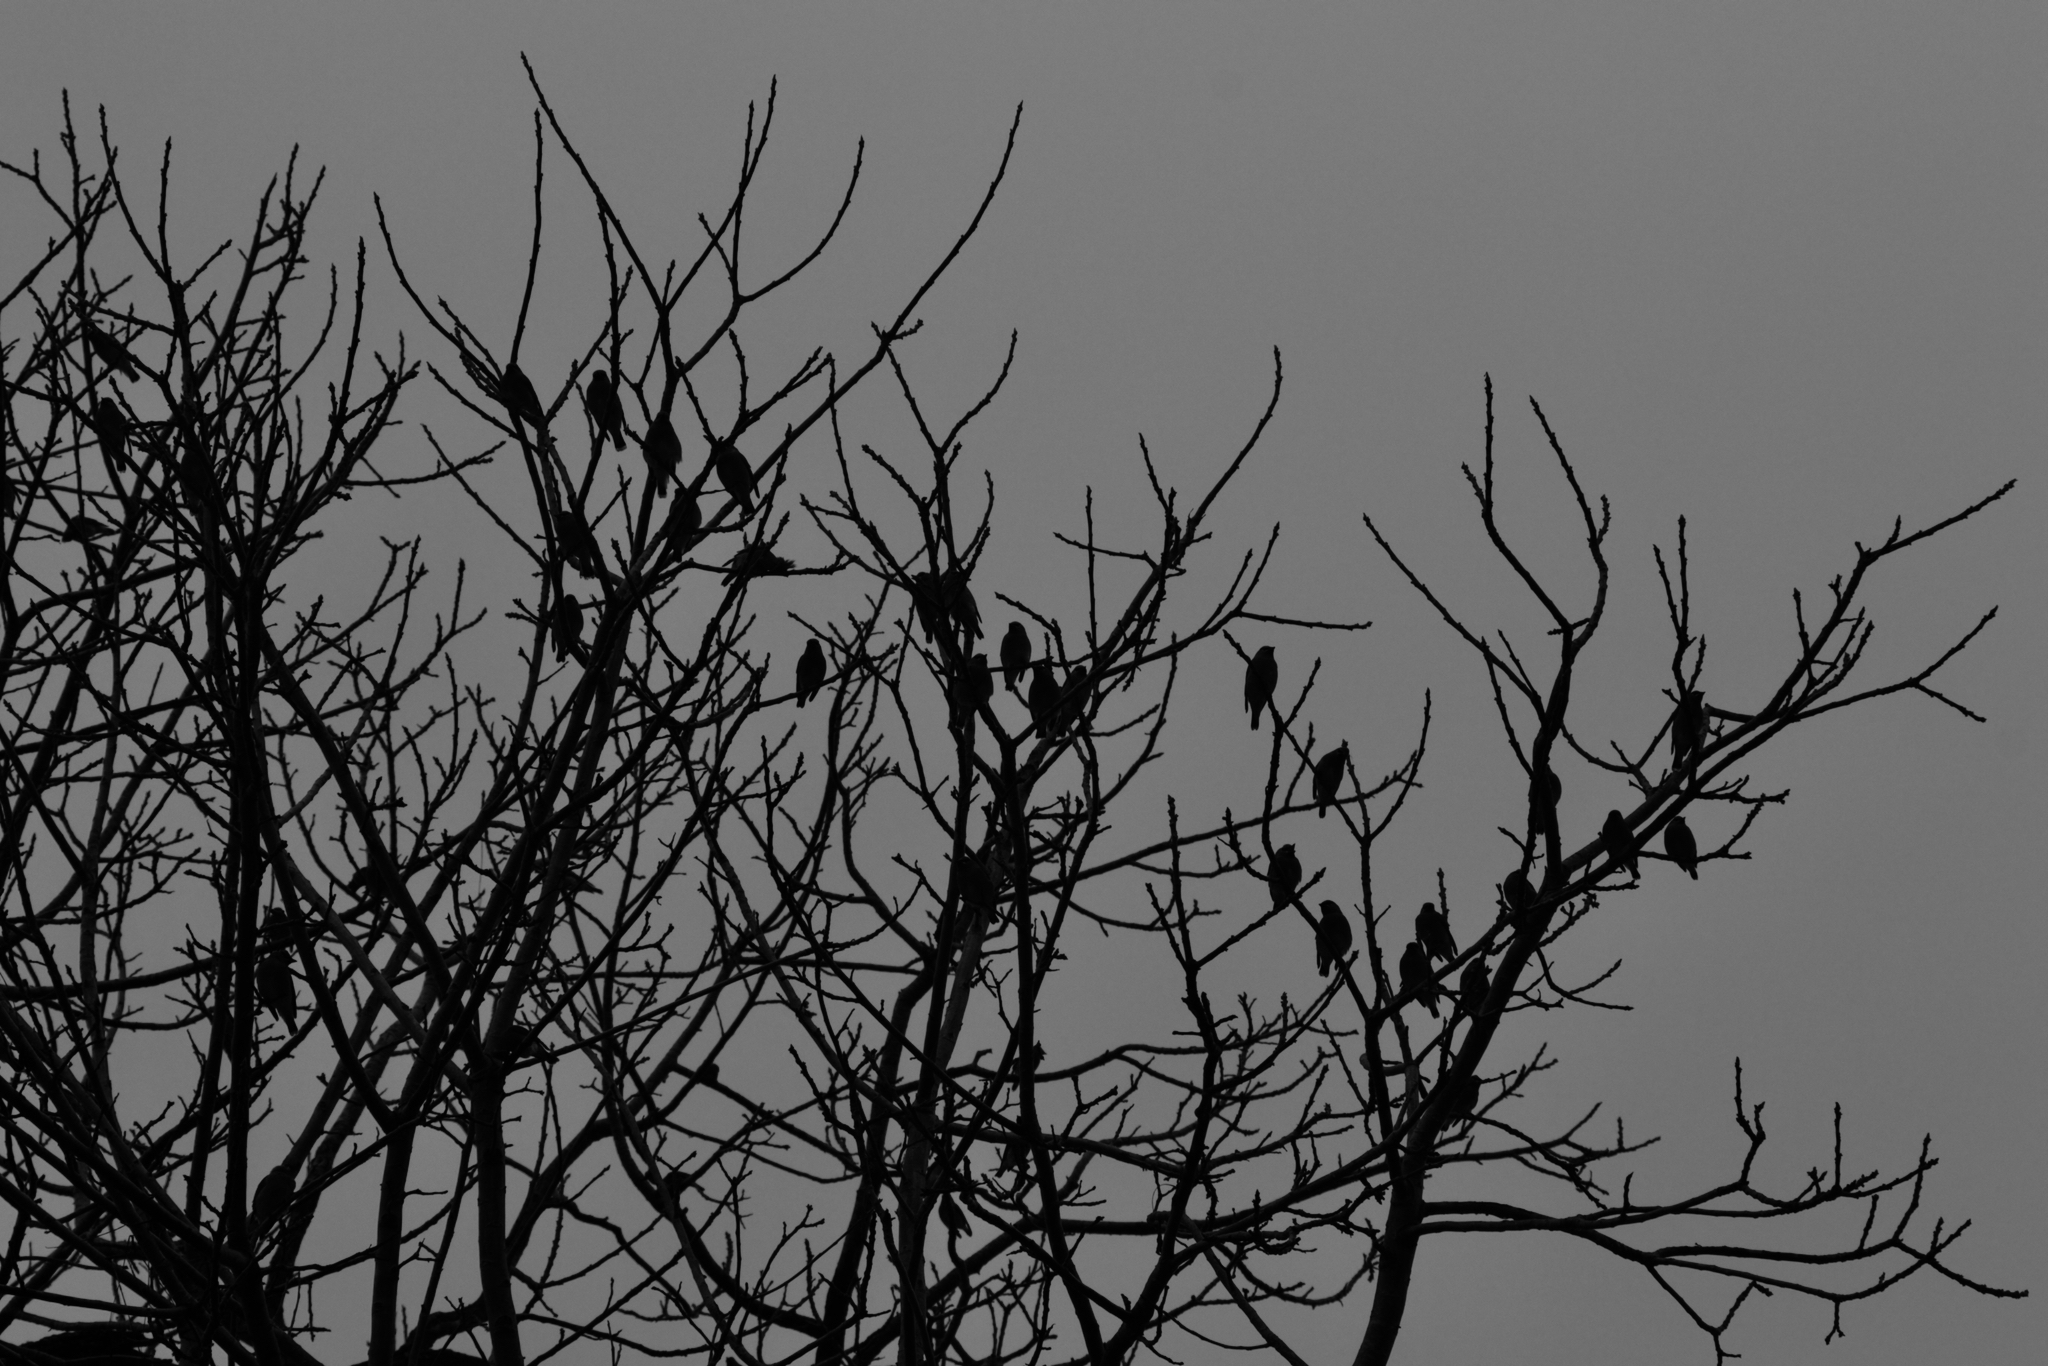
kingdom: Animalia
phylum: Chordata
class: Aves
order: Passeriformes
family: Bombycillidae
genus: Bombycilla
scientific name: Bombycilla cedrorum
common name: Cedar waxwing
